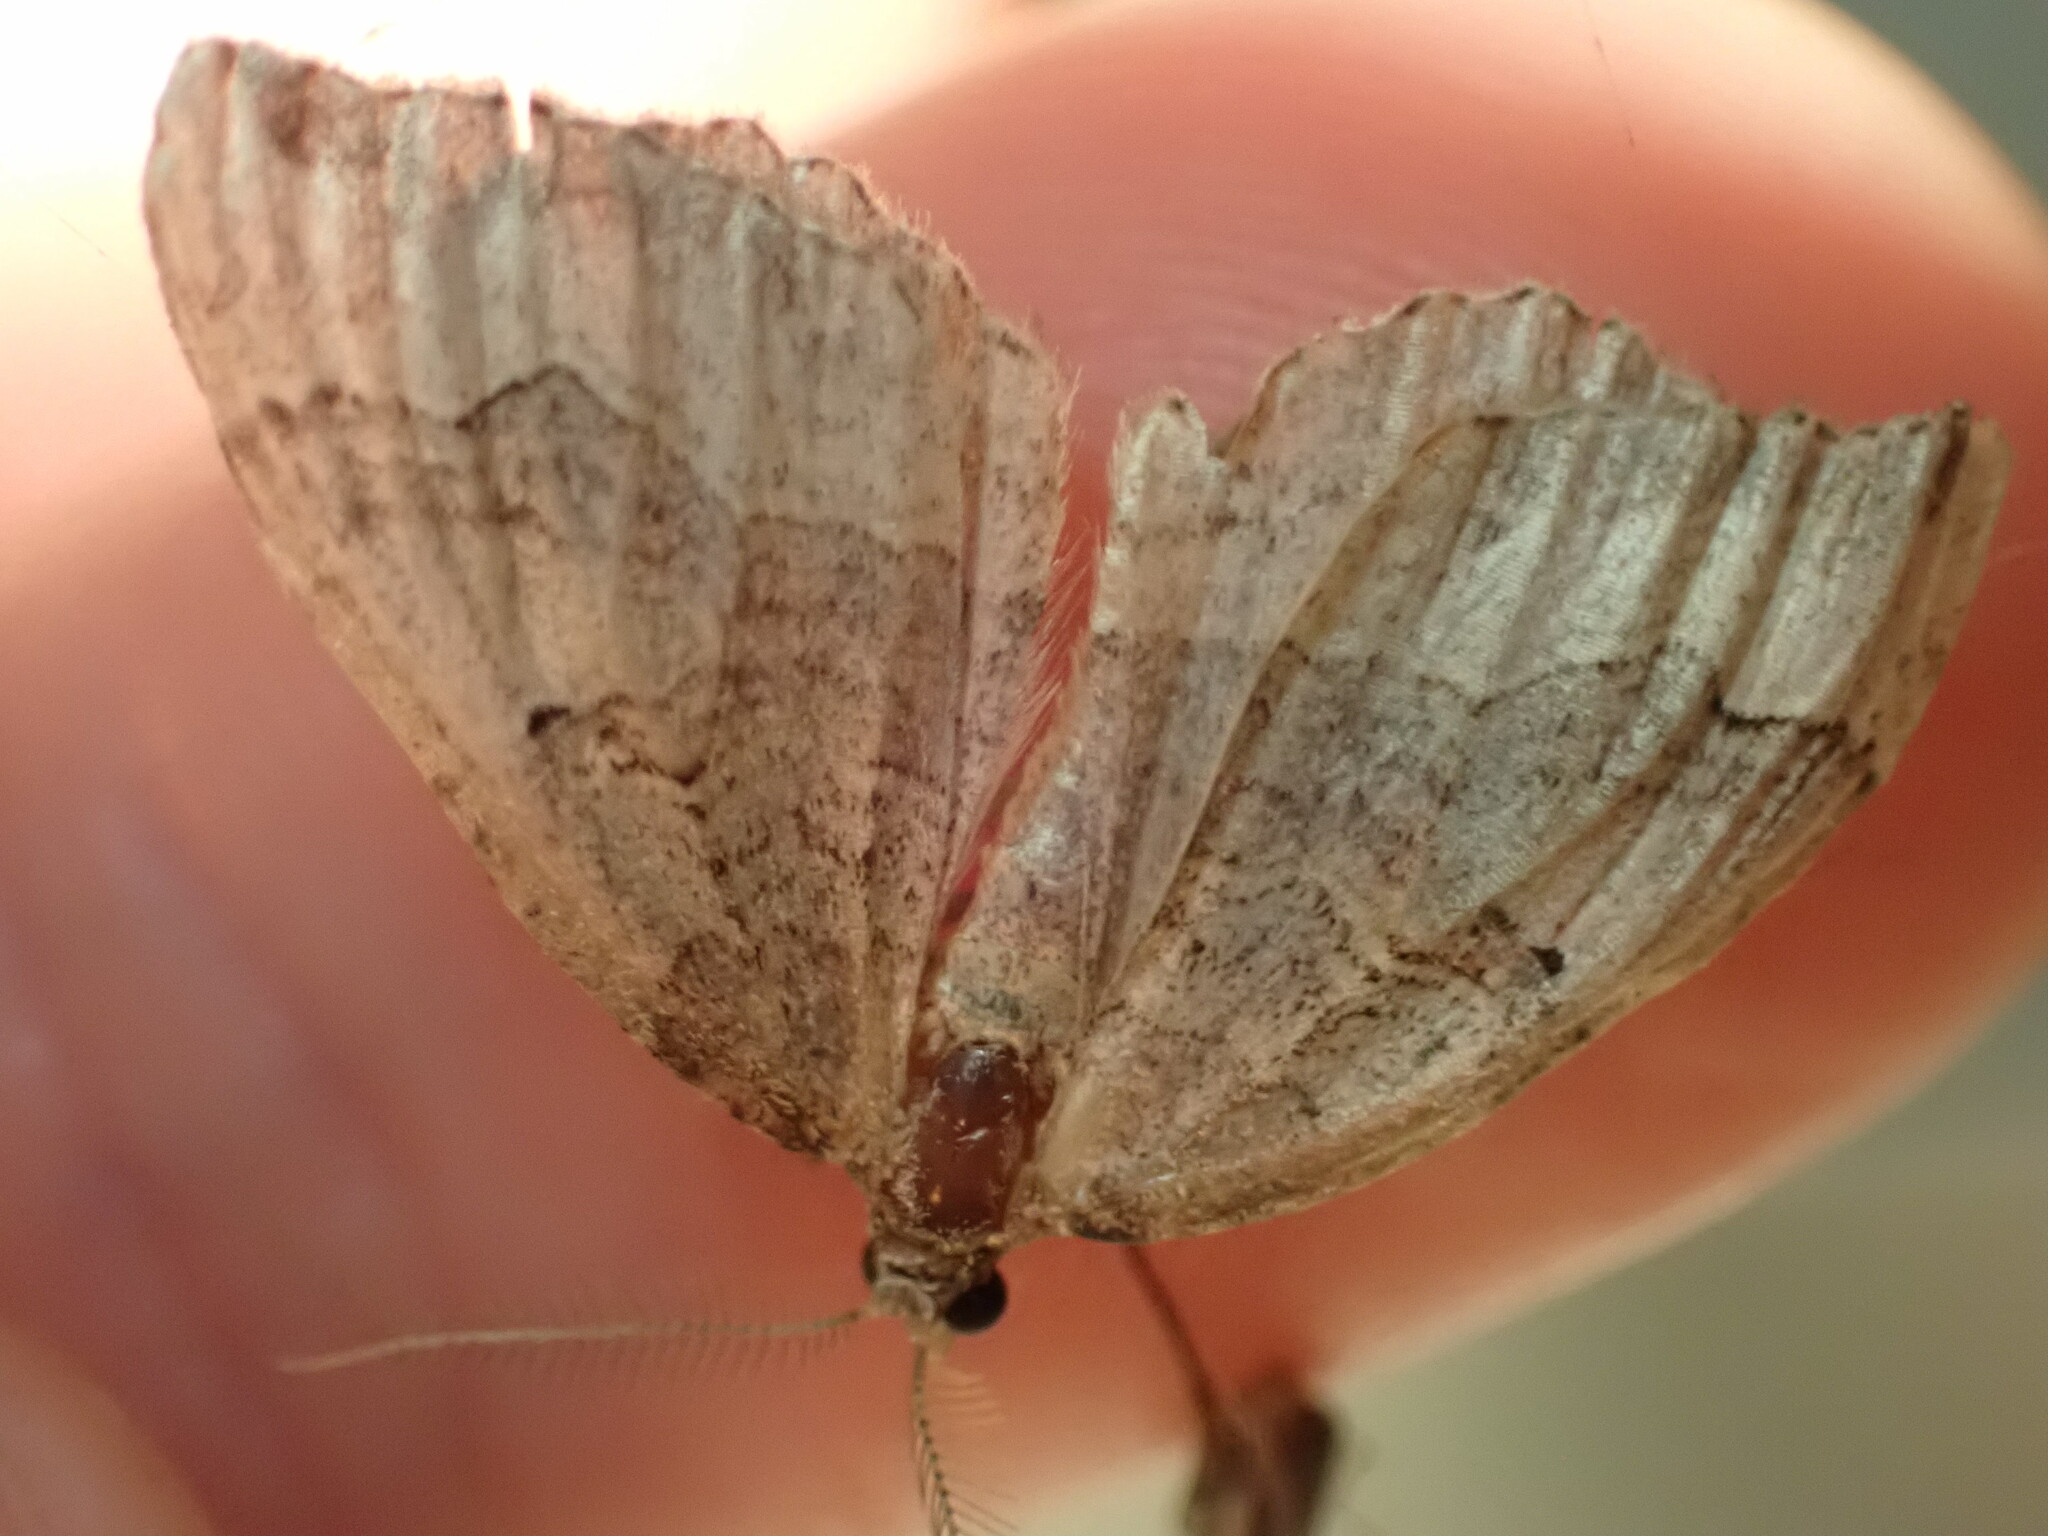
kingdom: Animalia
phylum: Arthropoda
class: Insecta
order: Lepidoptera
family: Geometridae
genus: Epyaxa
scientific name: Epyaxa rosearia
